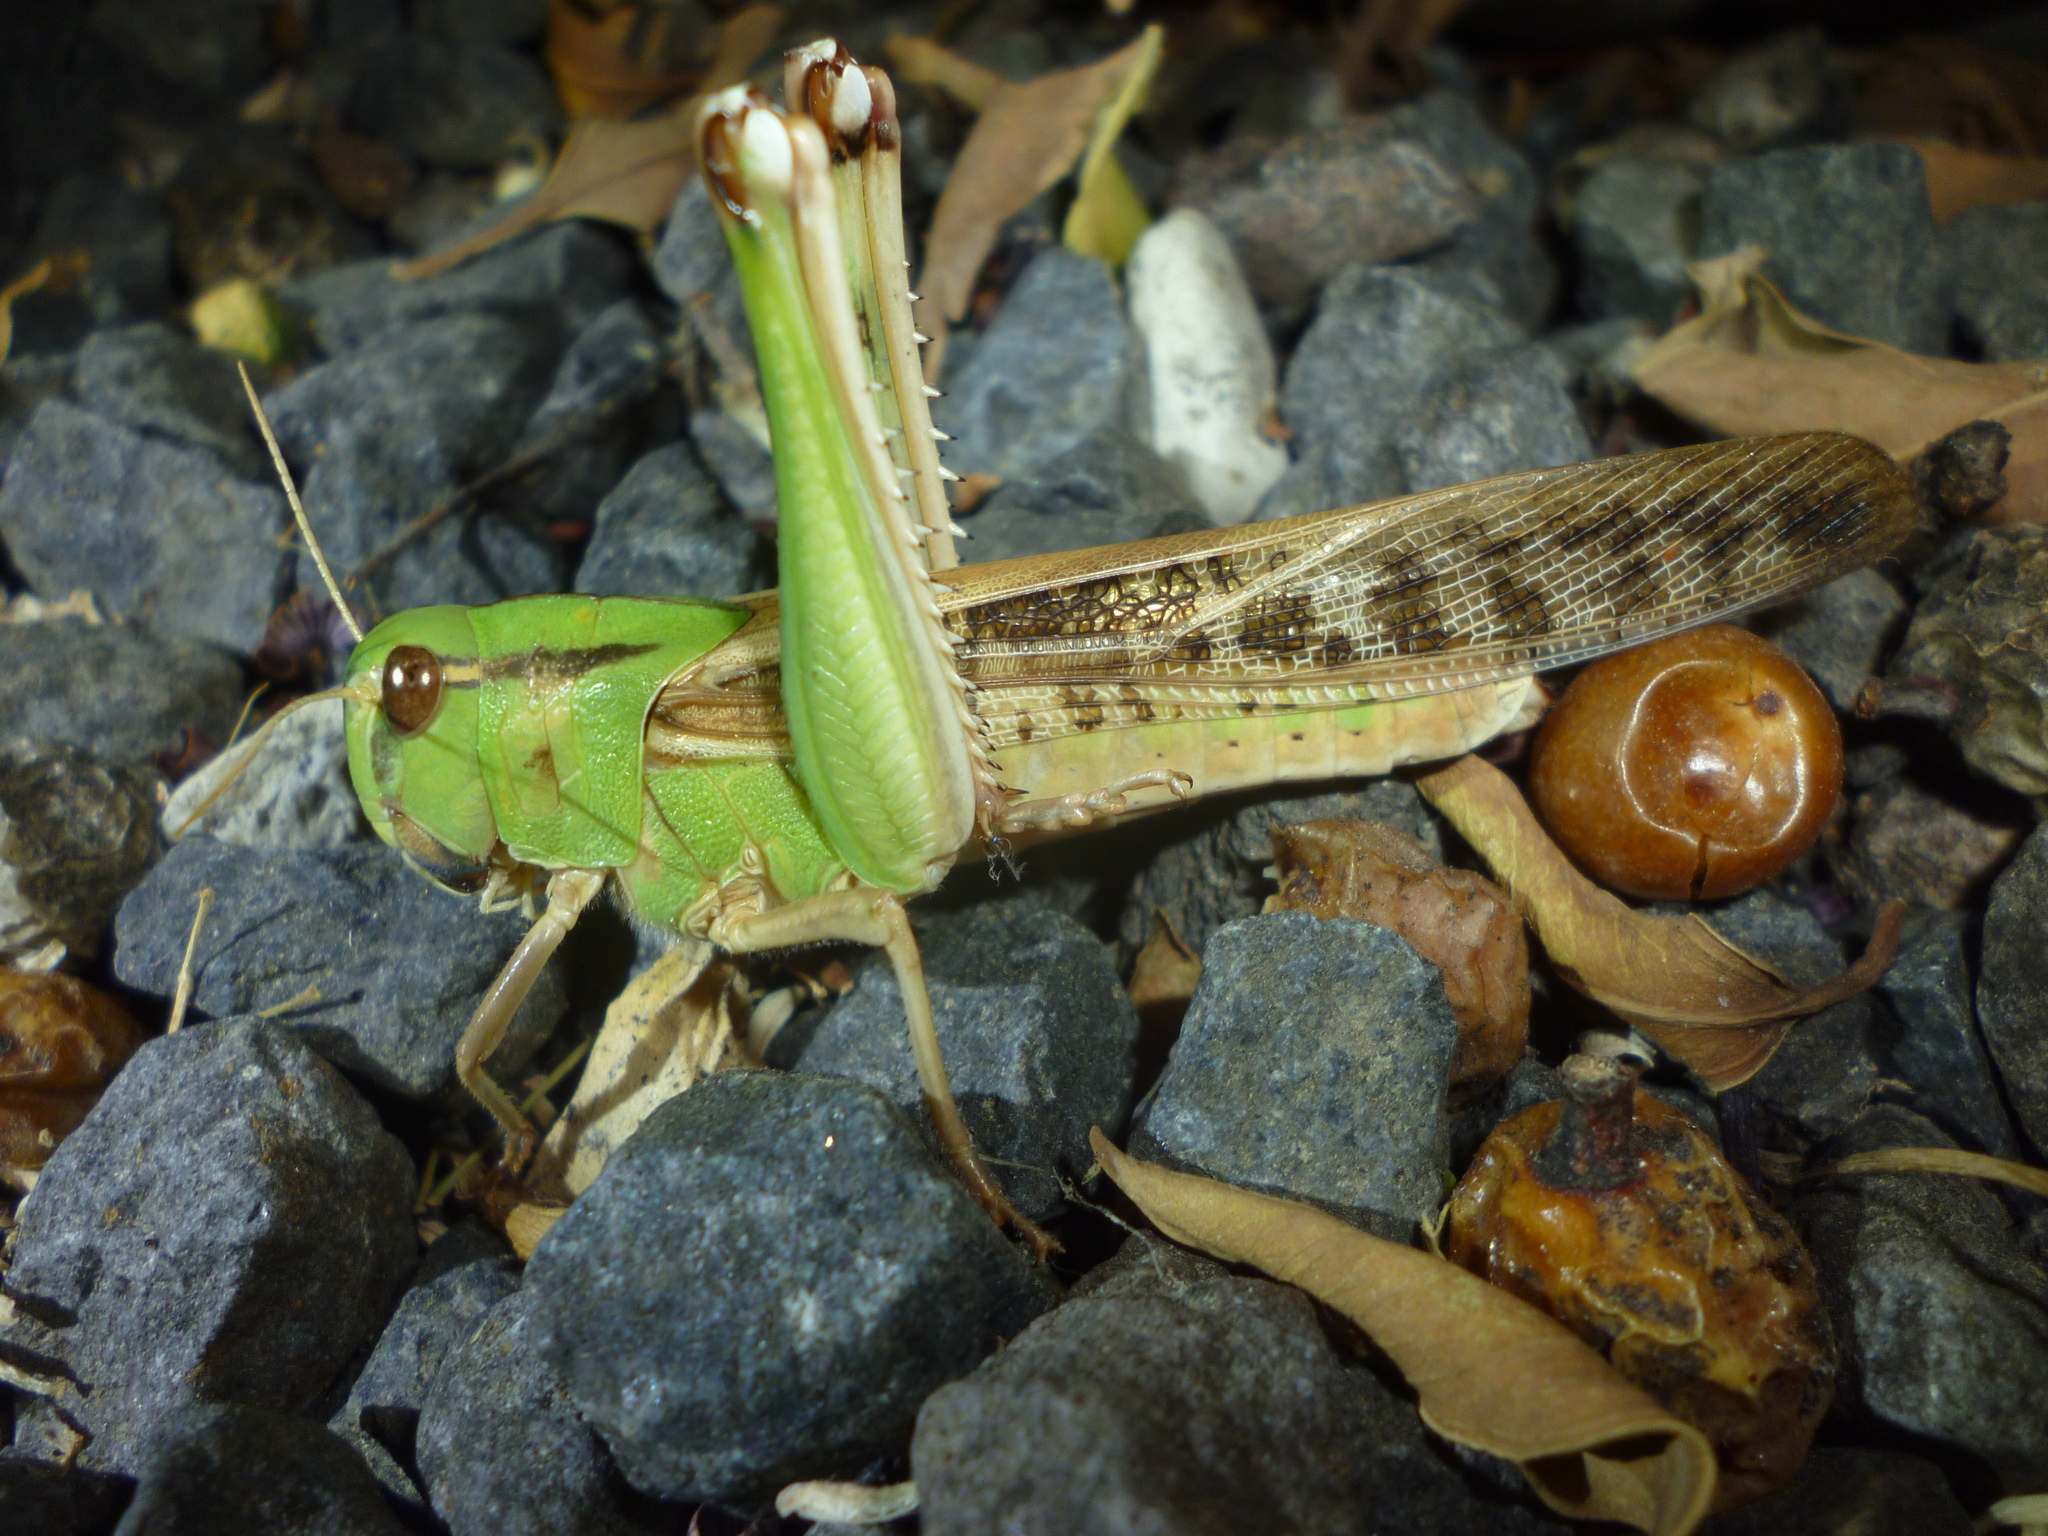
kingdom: Animalia
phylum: Arthropoda
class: Insecta
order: Orthoptera
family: Acrididae
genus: Locusta
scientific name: Locusta migratoria
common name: Migratory locust
